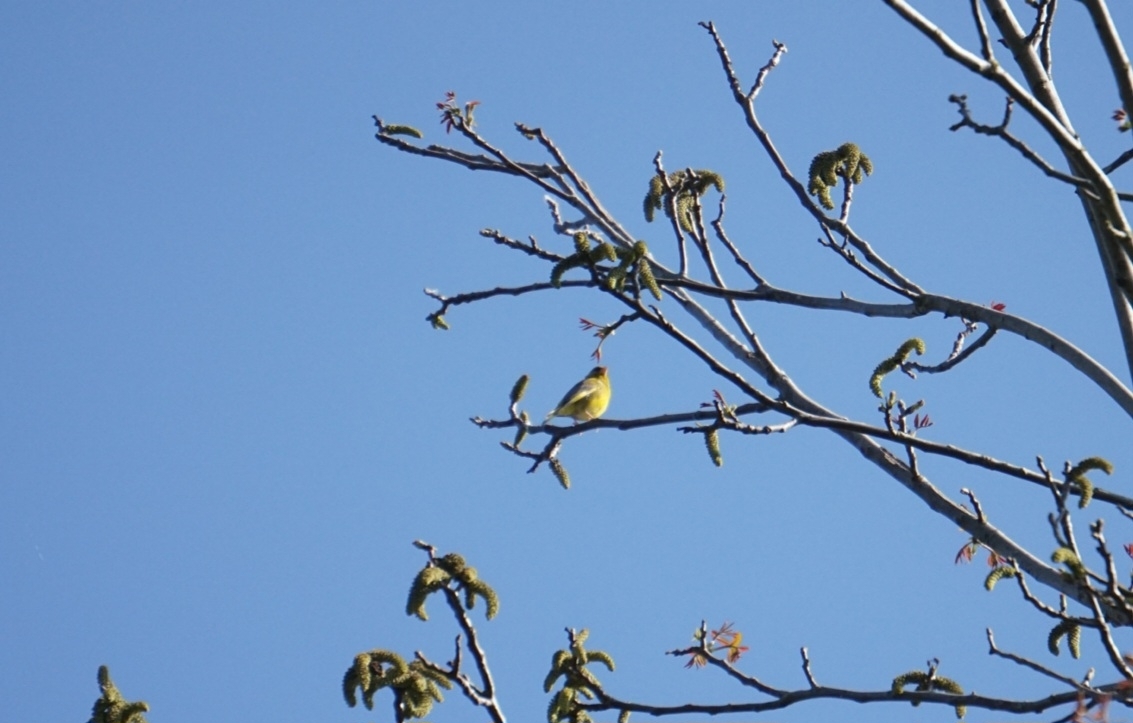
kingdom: Plantae
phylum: Tracheophyta
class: Liliopsida
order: Poales
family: Poaceae
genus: Chloris
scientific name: Chloris chloris
